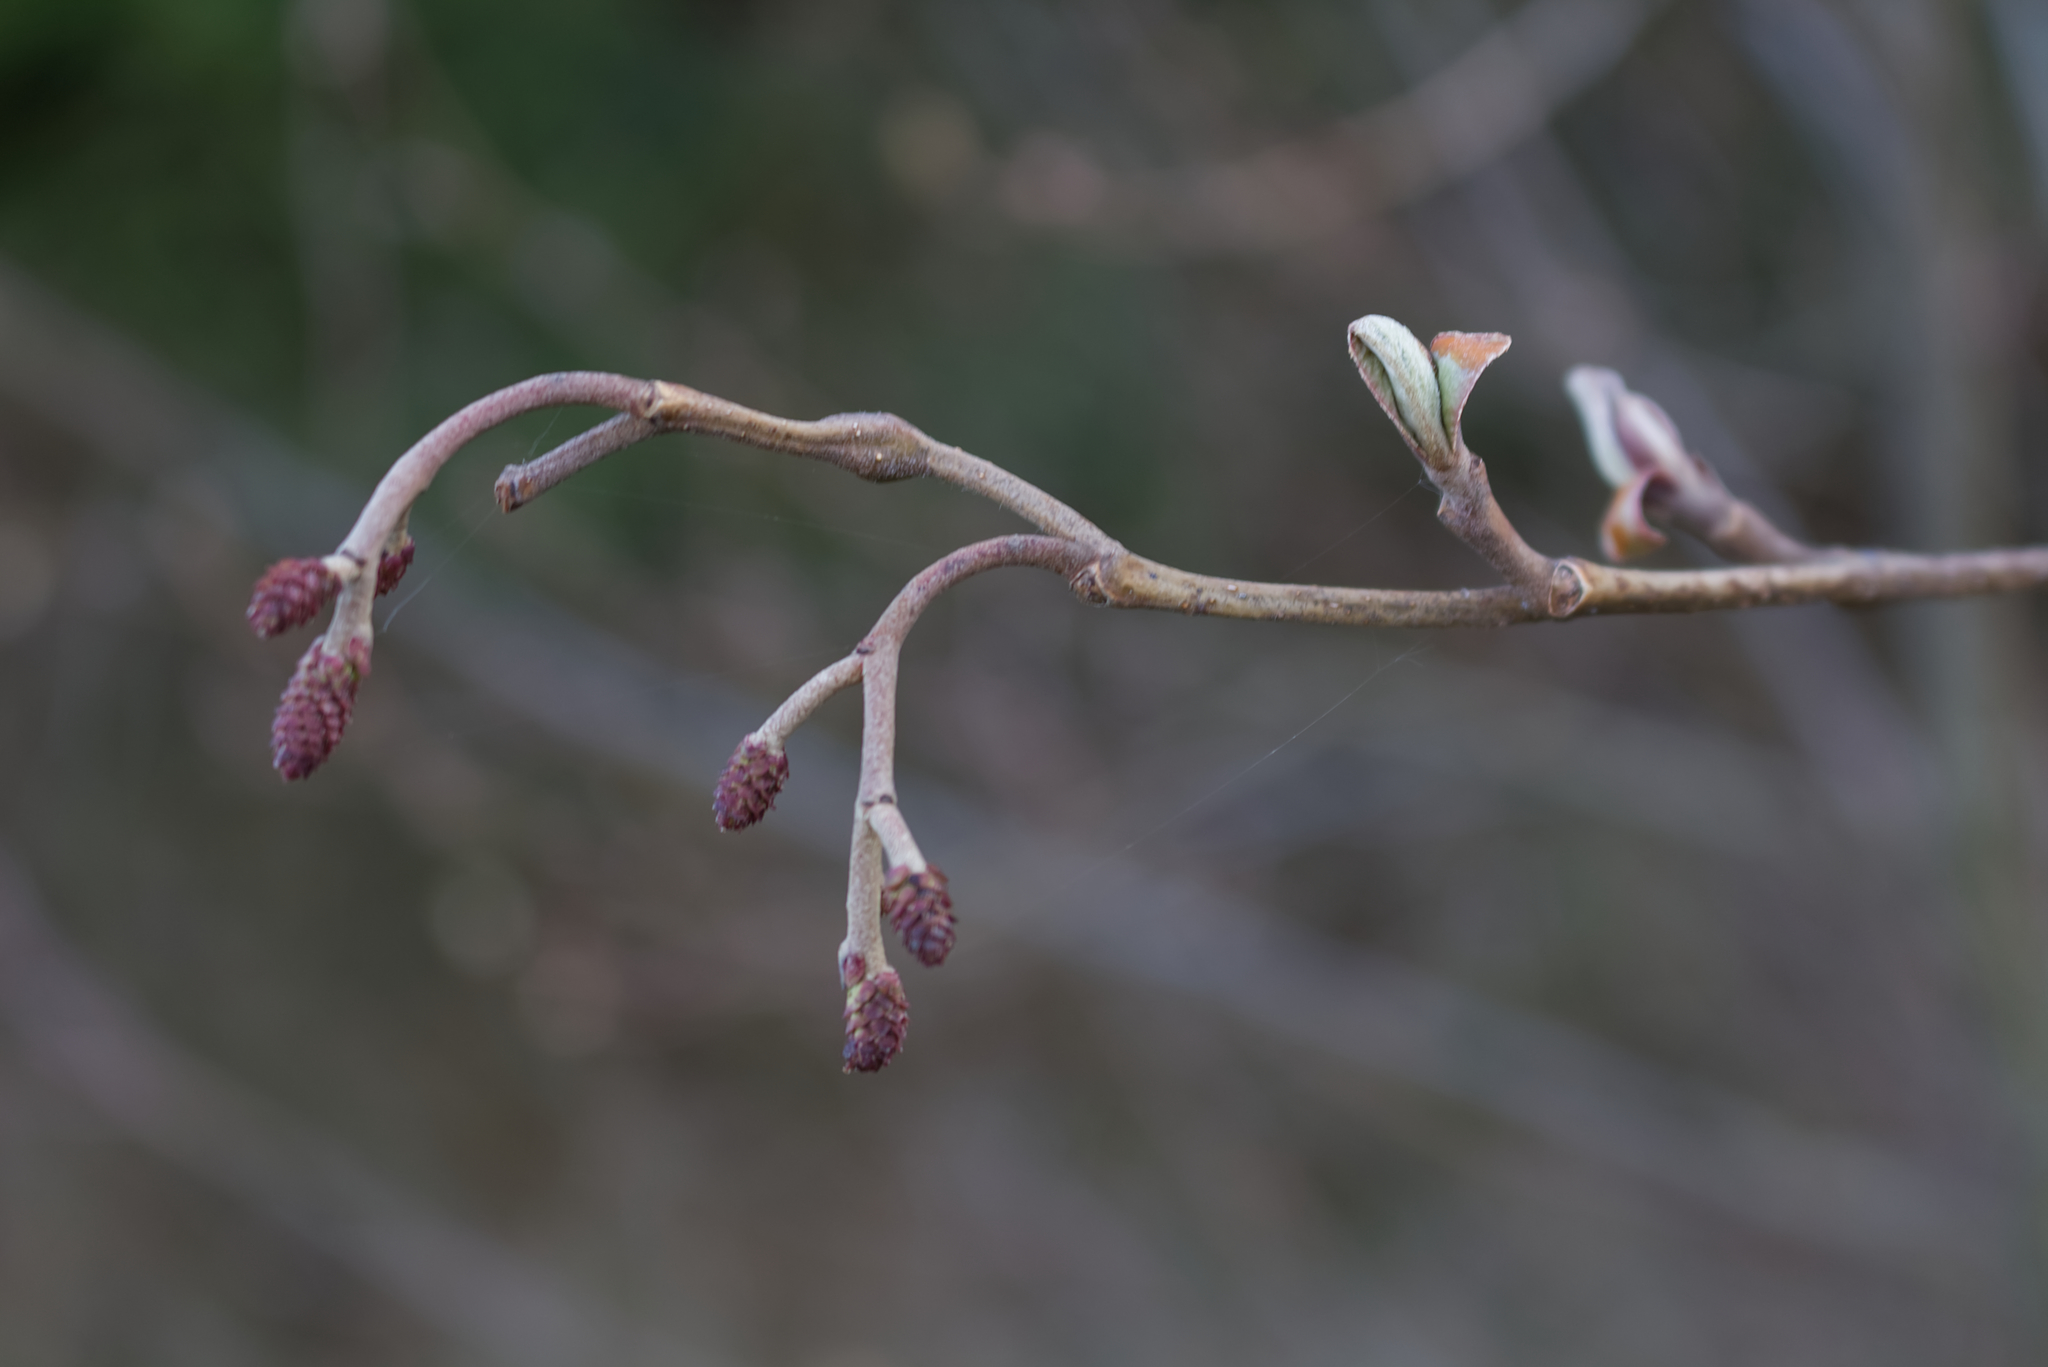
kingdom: Plantae
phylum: Tracheophyta
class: Magnoliopsida
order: Fagales
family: Betulaceae
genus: Alnus
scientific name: Alnus glutinosa
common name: Black alder
